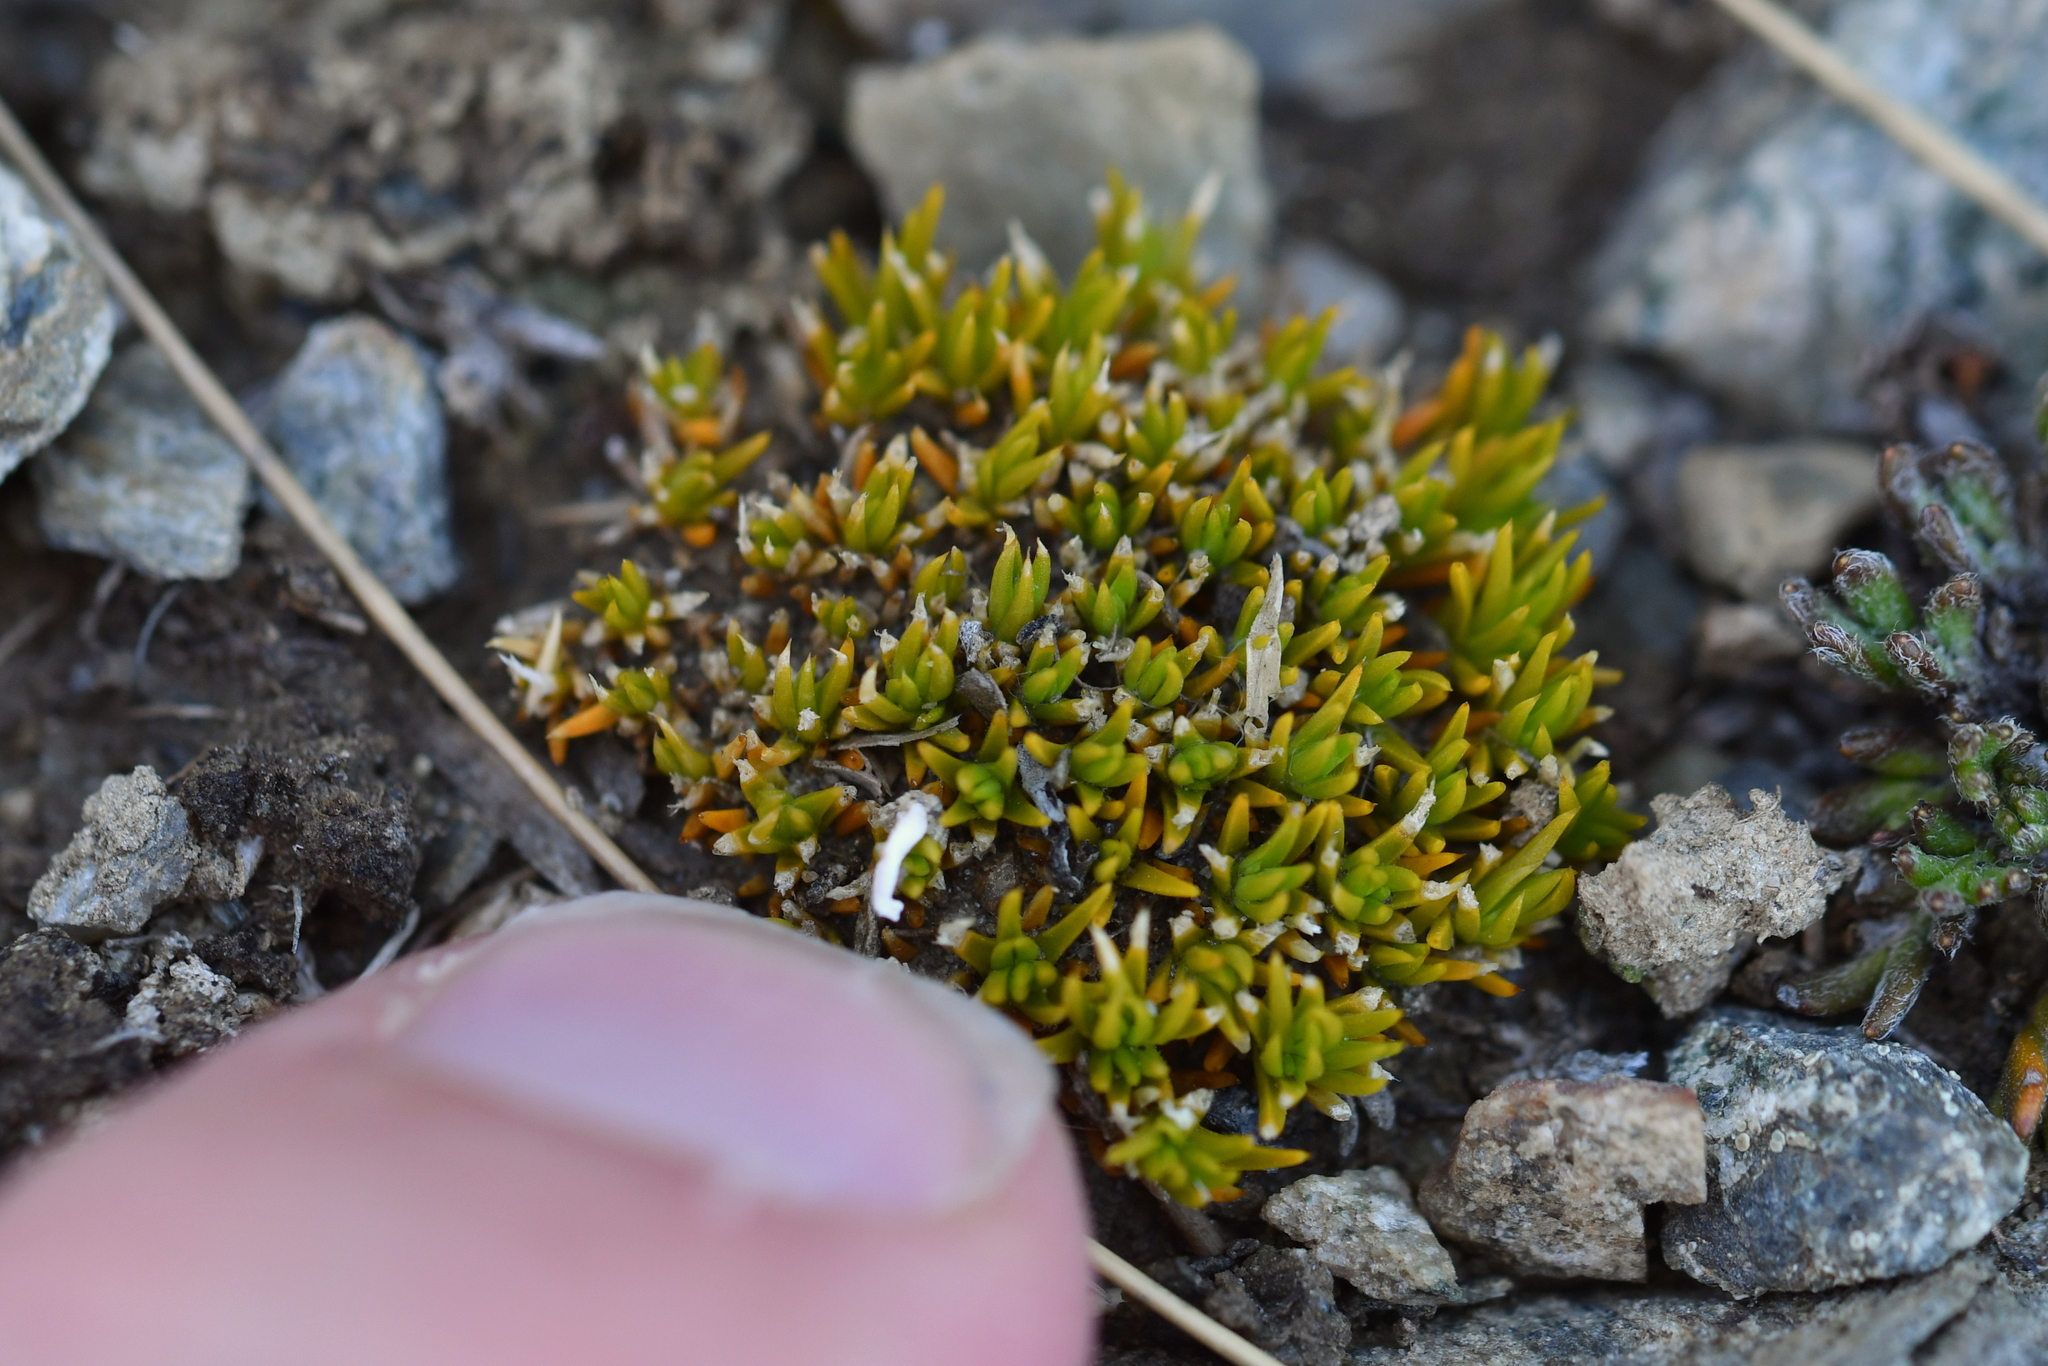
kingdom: Plantae
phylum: Tracheophyta
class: Magnoliopsida
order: Caryophyllales
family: Caryophyllaceae
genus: Scleranthus
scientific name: Scleranthus uniflorus
